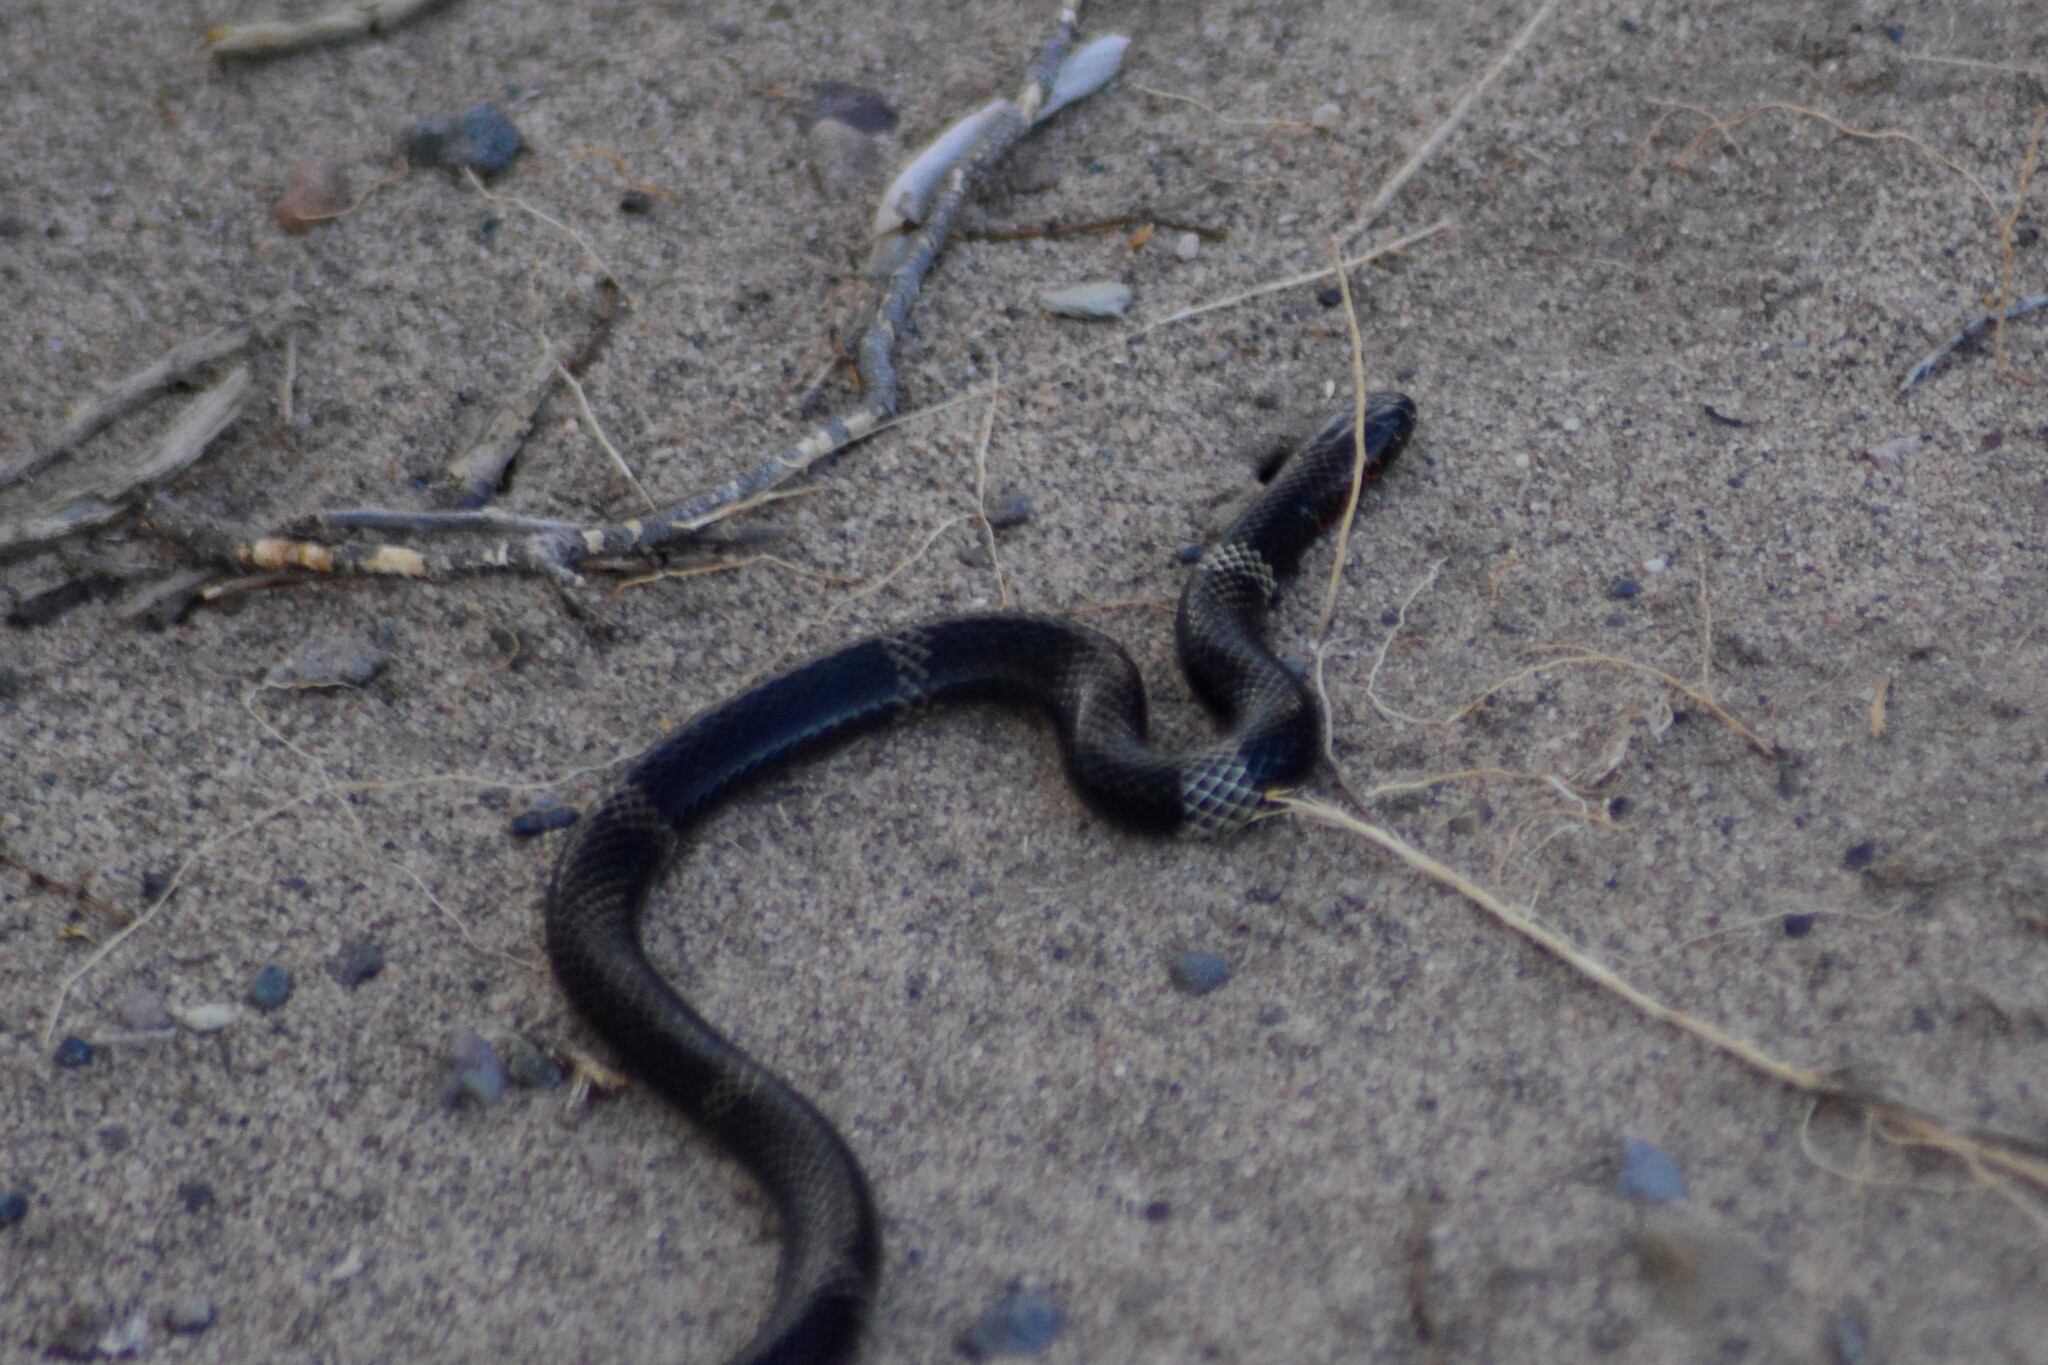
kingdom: Animalia
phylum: Chordata
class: Squamata
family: Elapidae
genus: Micrurus
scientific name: Micrurus pyrrhocryptus
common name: Argentinian coral snake
